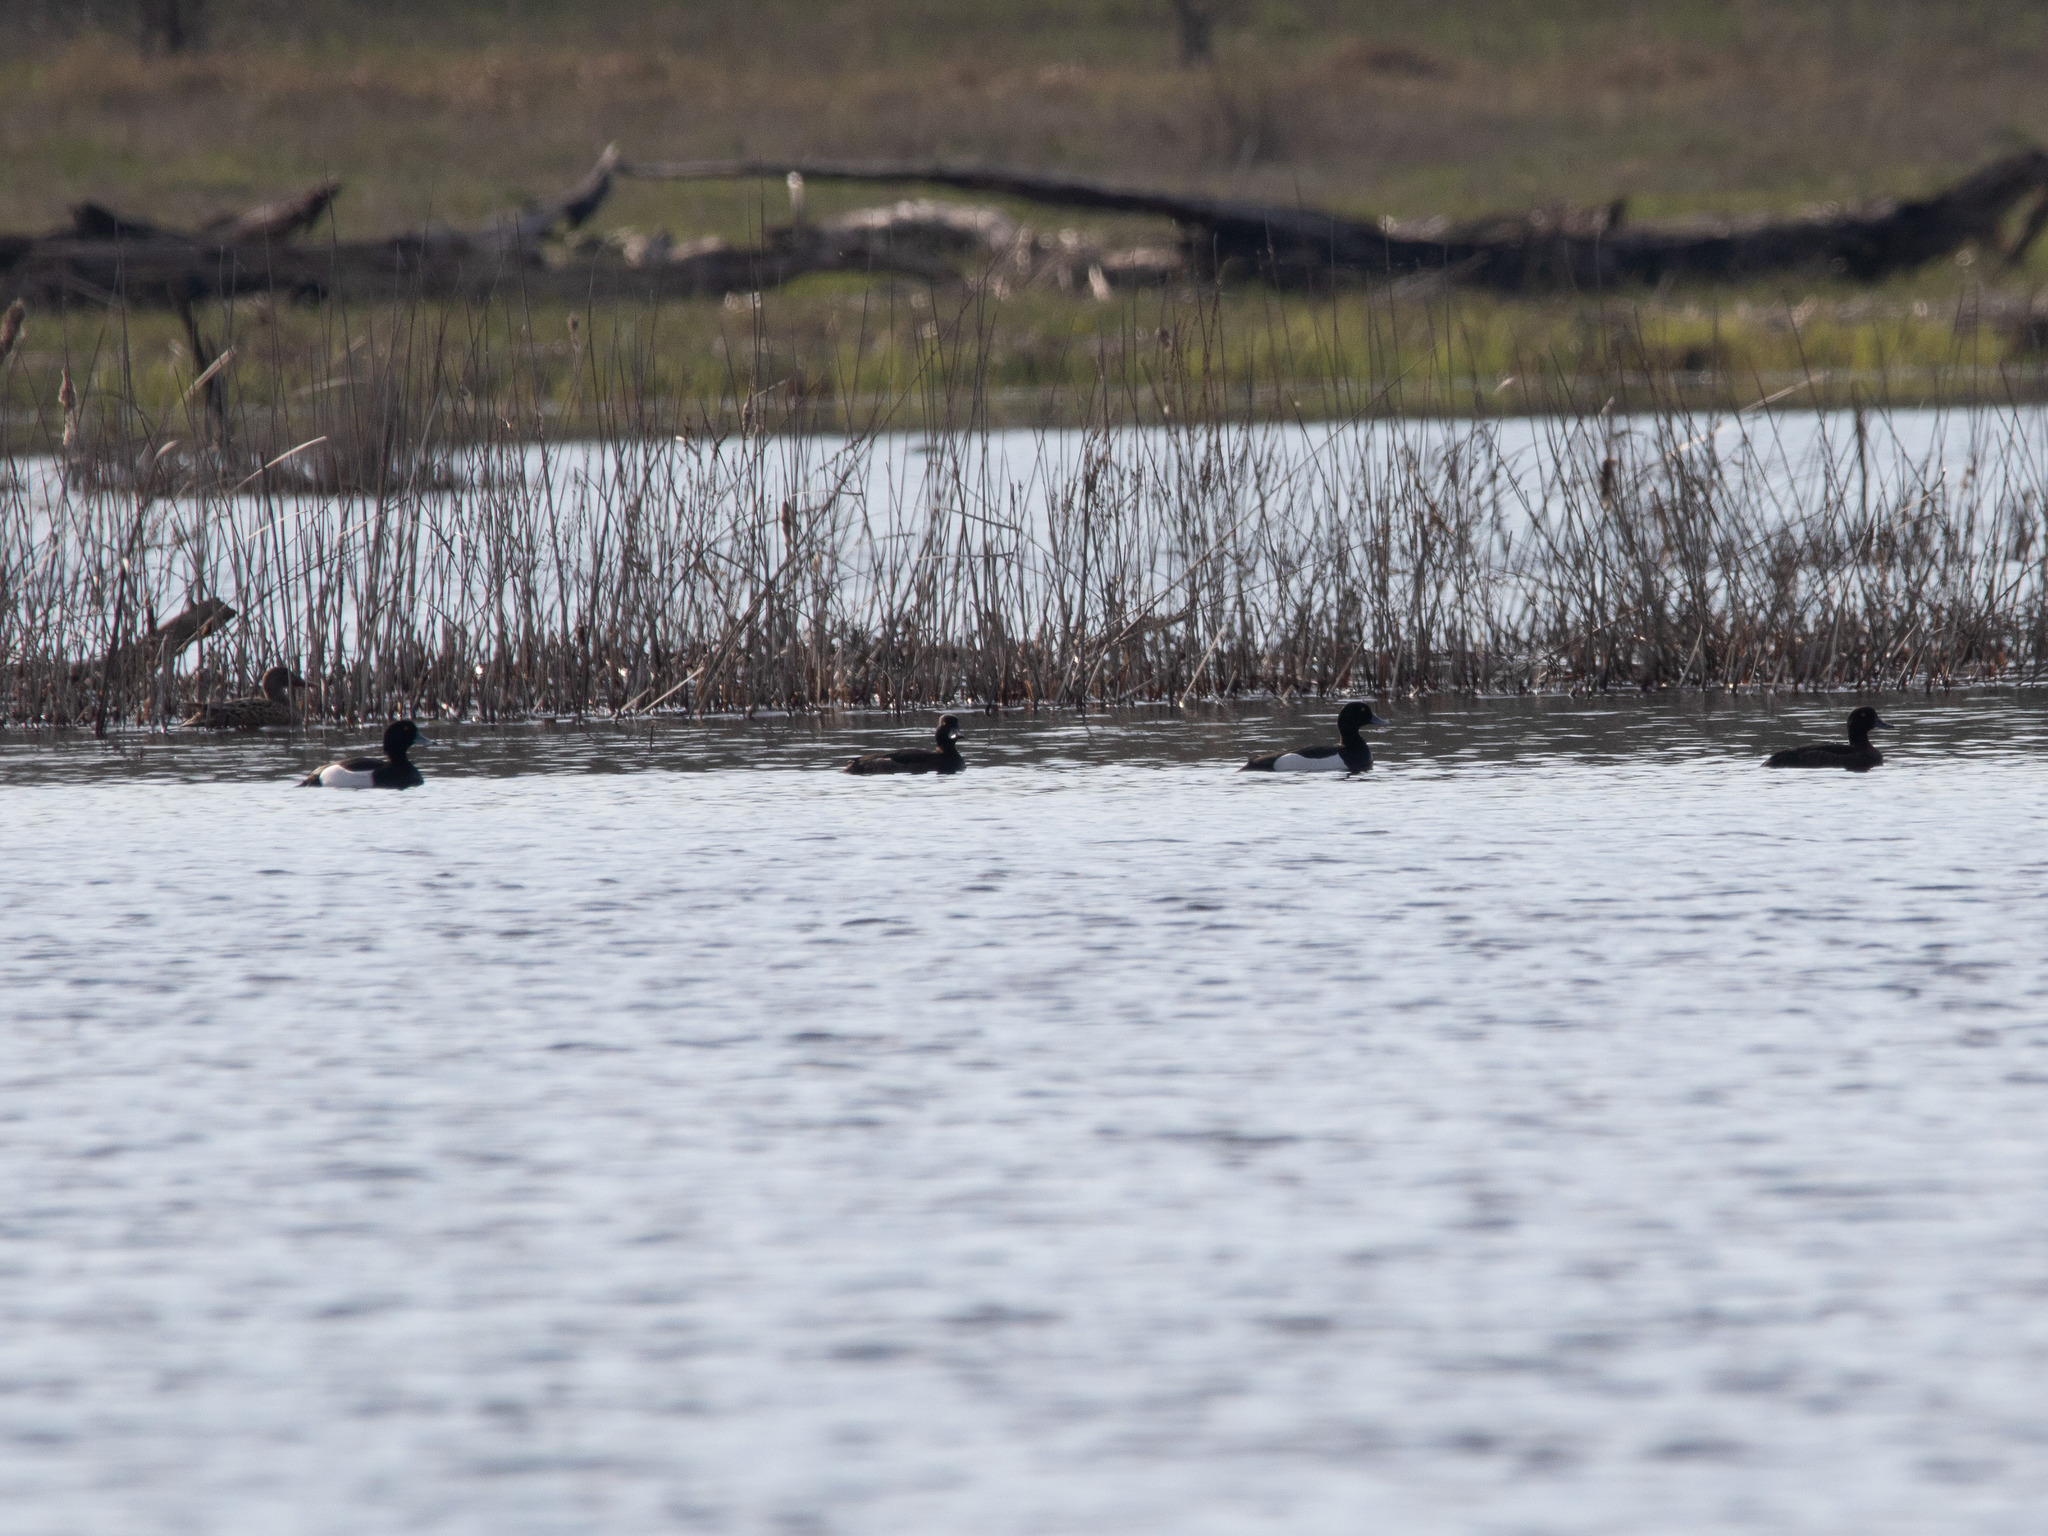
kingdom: Animalia
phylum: Chordata
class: Aves
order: Anseriformes
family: Anatidae
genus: Aythya
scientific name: Aythya fuligula
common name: Tufted duck
